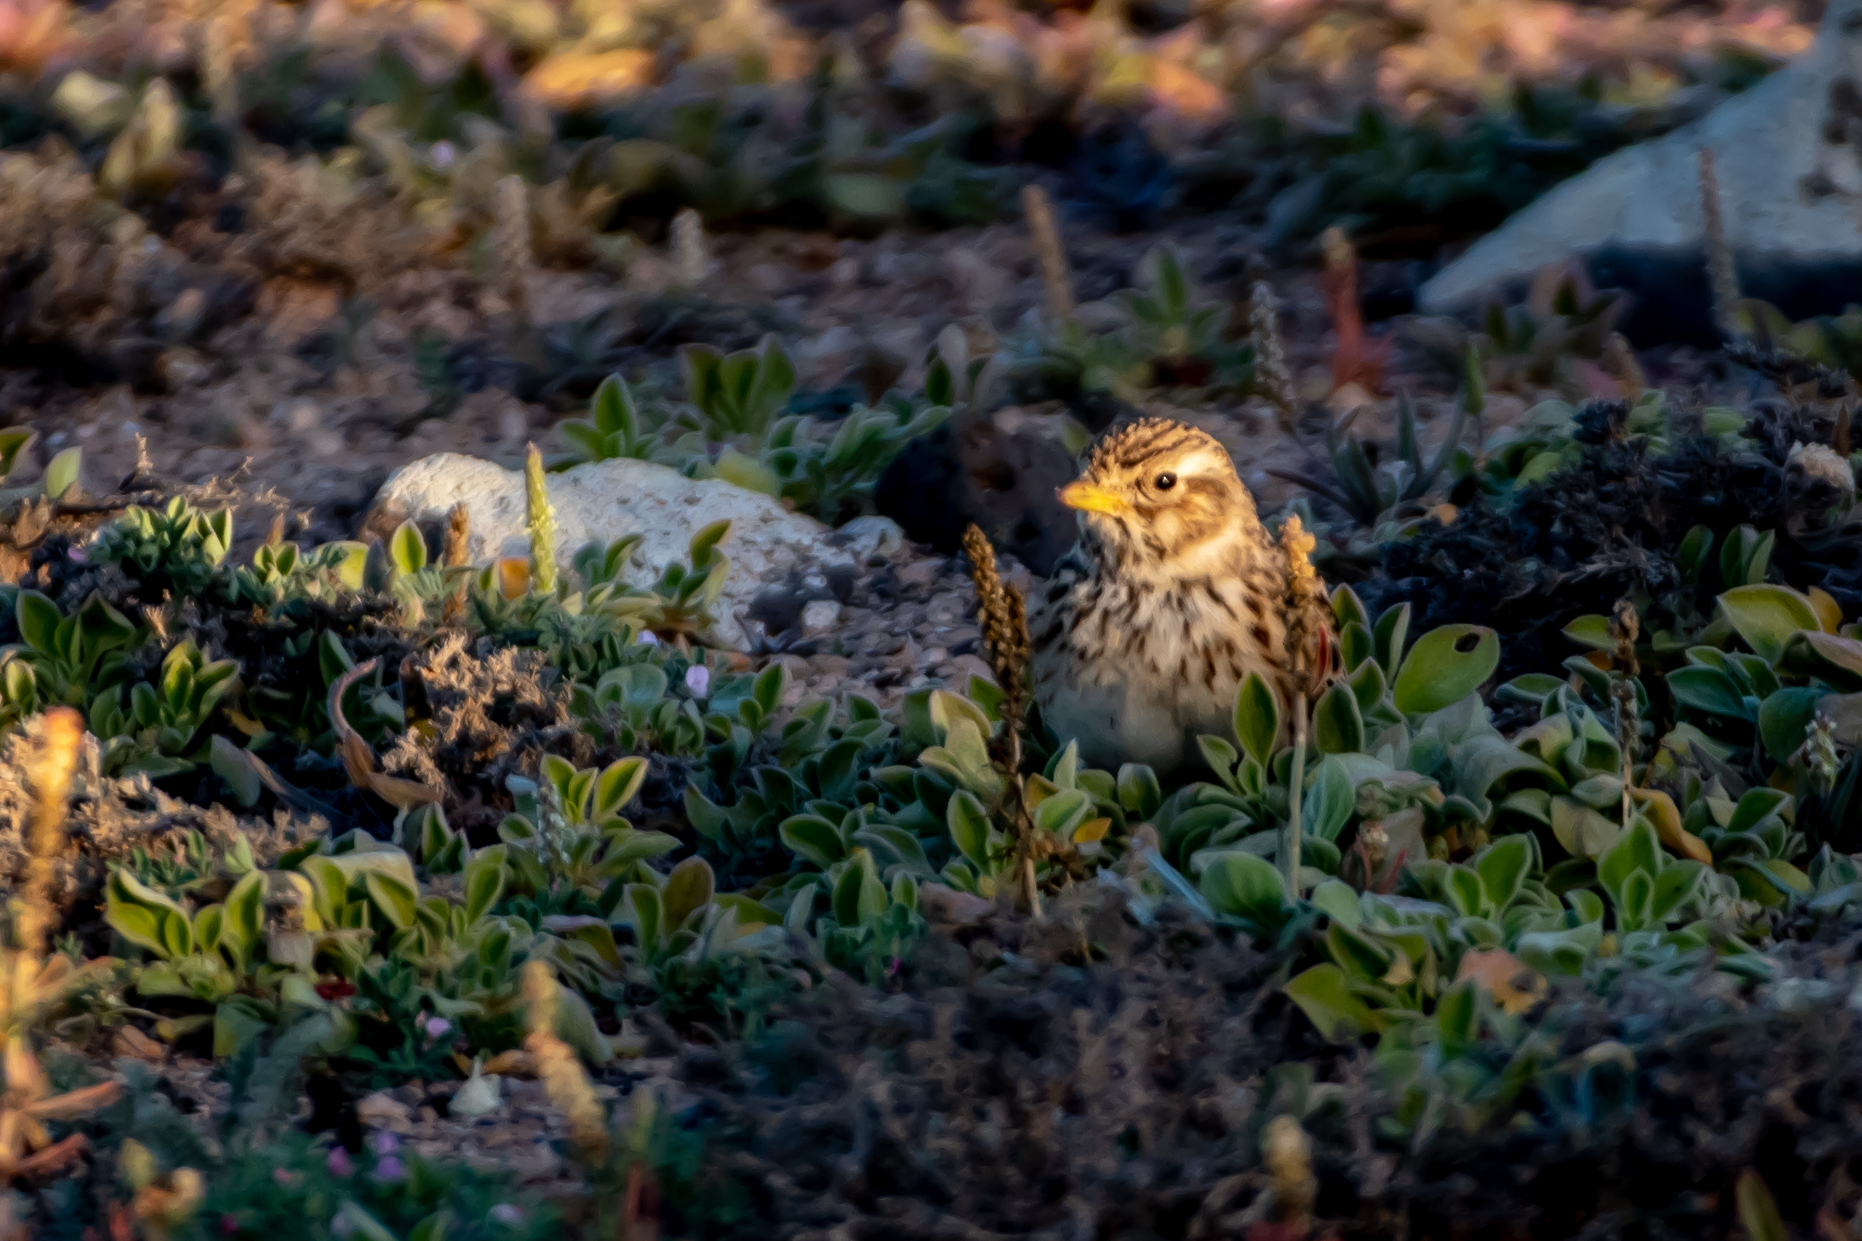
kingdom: Animalia
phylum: Chordata
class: Aves
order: Passeriformes
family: Alaudidae
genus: Calandrella
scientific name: Calandrella rufescens
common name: Lesser short-toed lark
